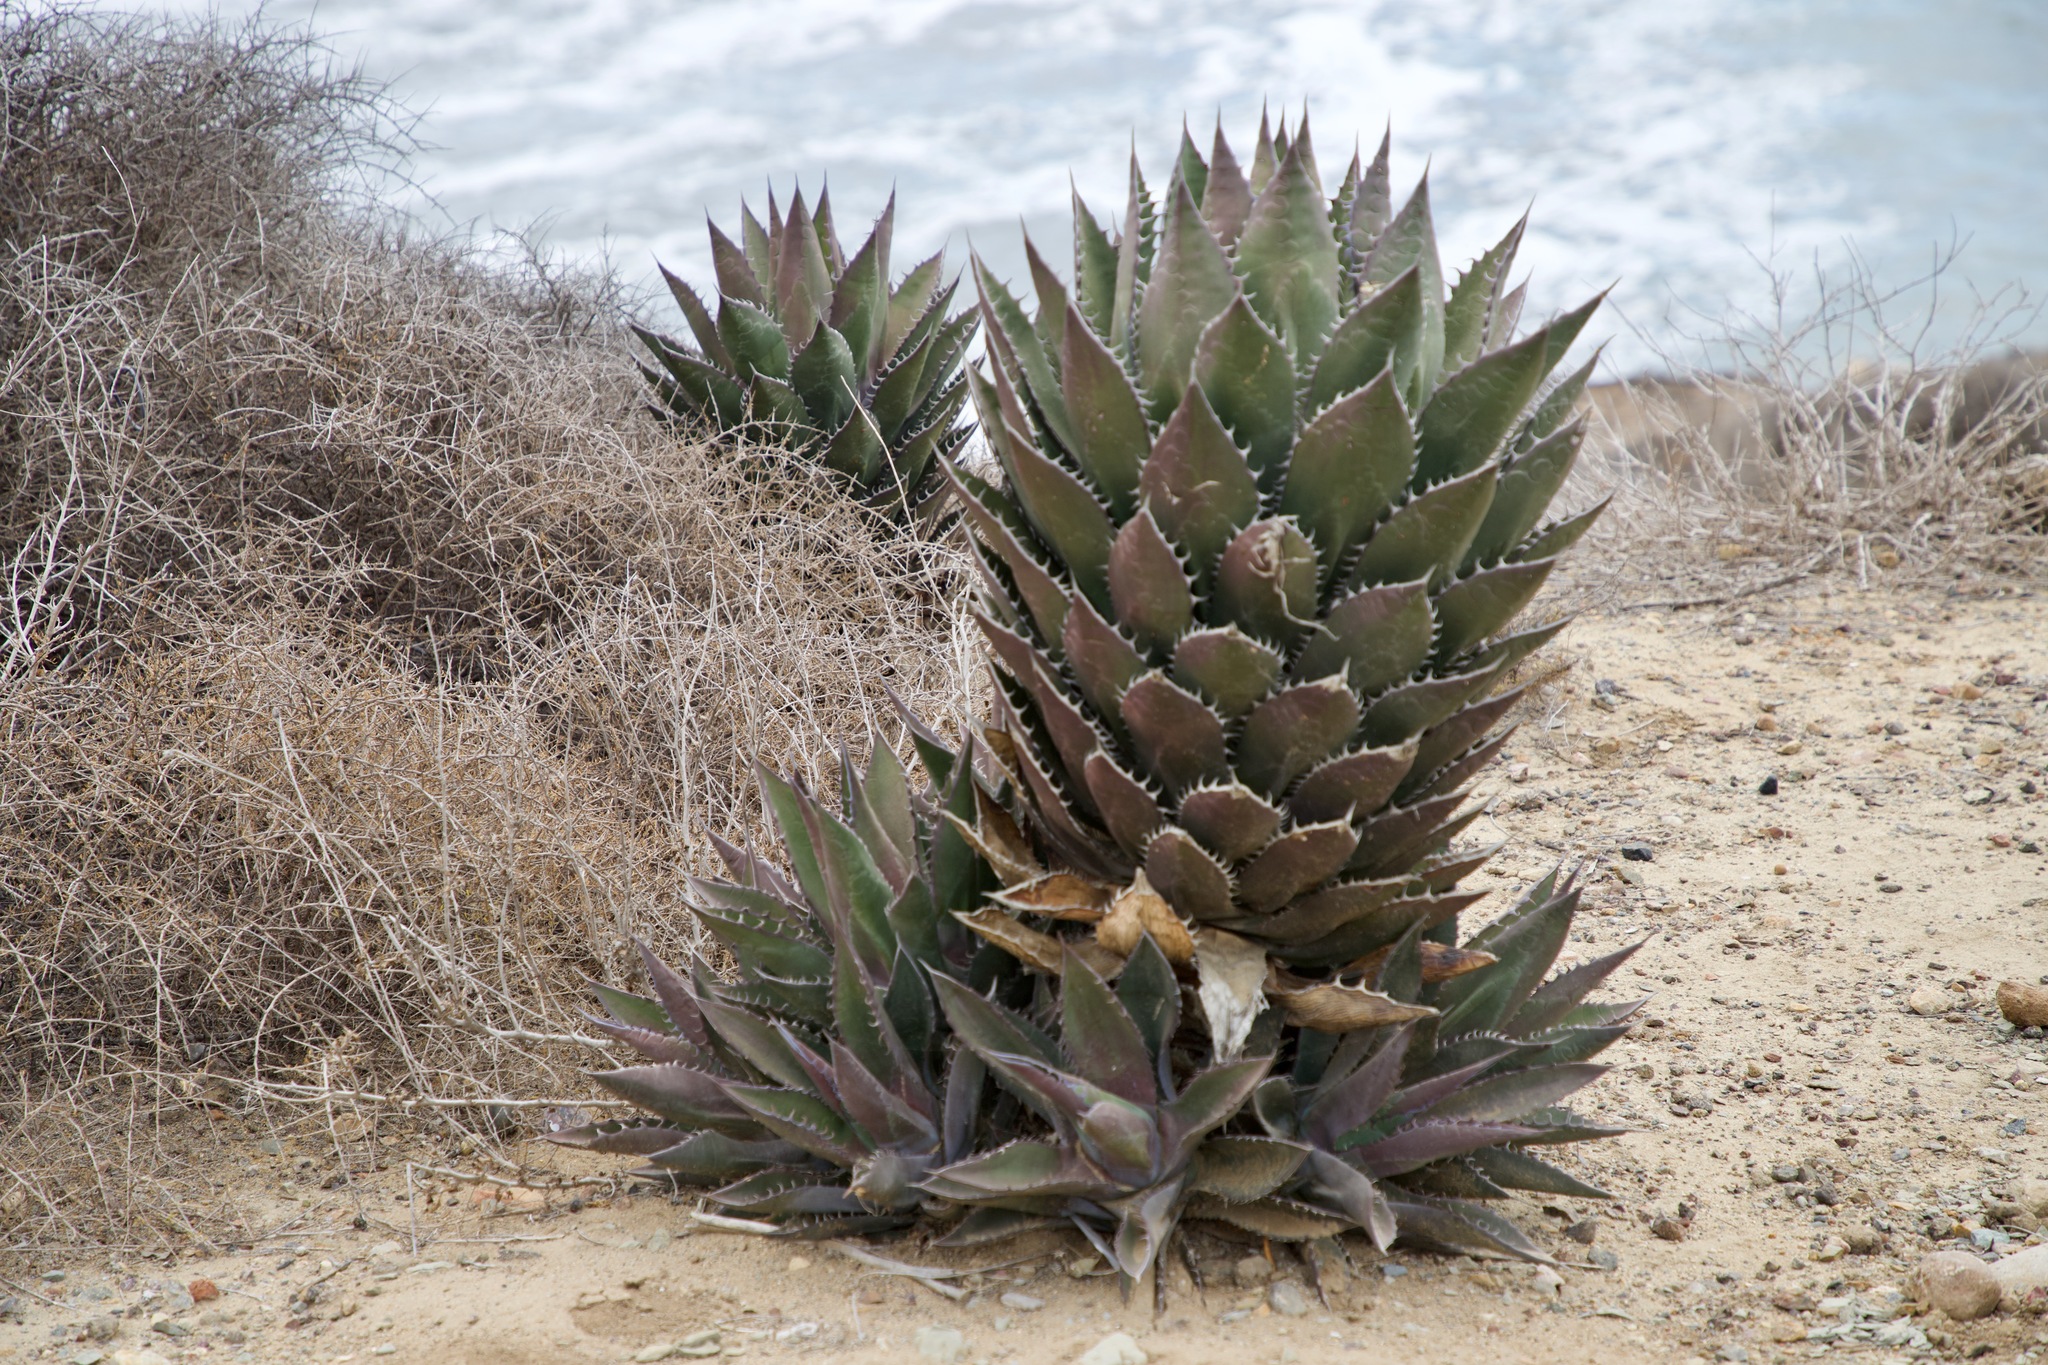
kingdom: Plantae
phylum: Tracheophyta
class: Liliopsida
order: Asparagales
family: Asparagaceae
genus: Agave
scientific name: Agave shawii
